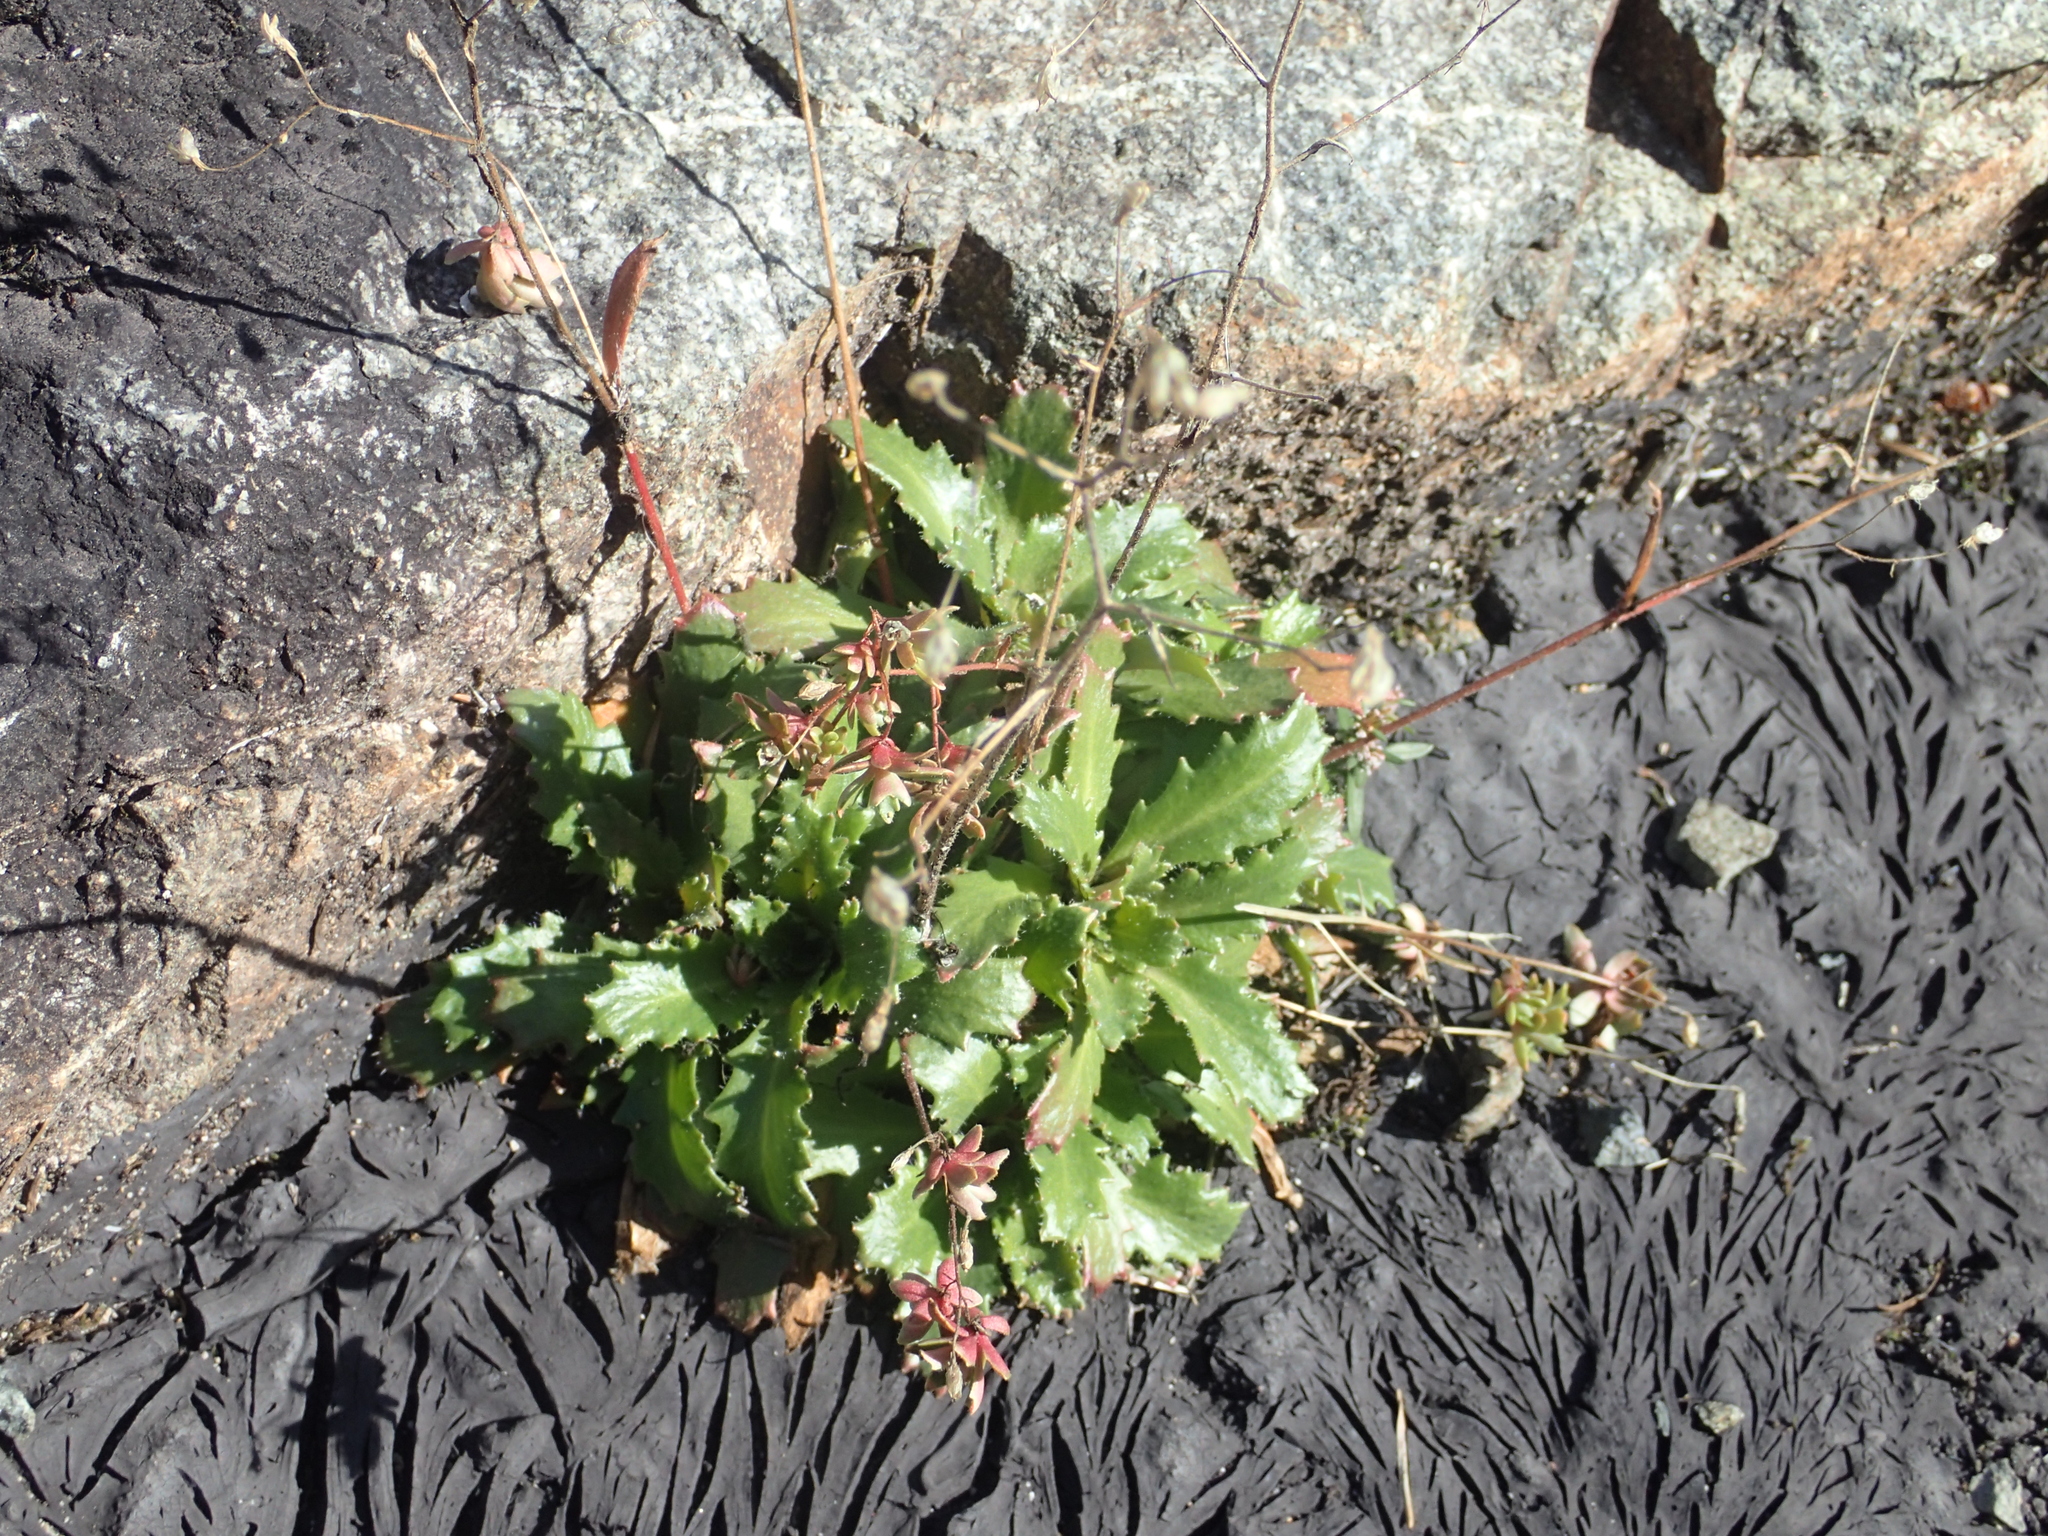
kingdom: Plantae
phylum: Tracheophyta
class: Magnoliopsida
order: Saxifragales
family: Saxifragaceae
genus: Micranthes
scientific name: Micranthes ferruginea
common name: Rusty saxifrage
